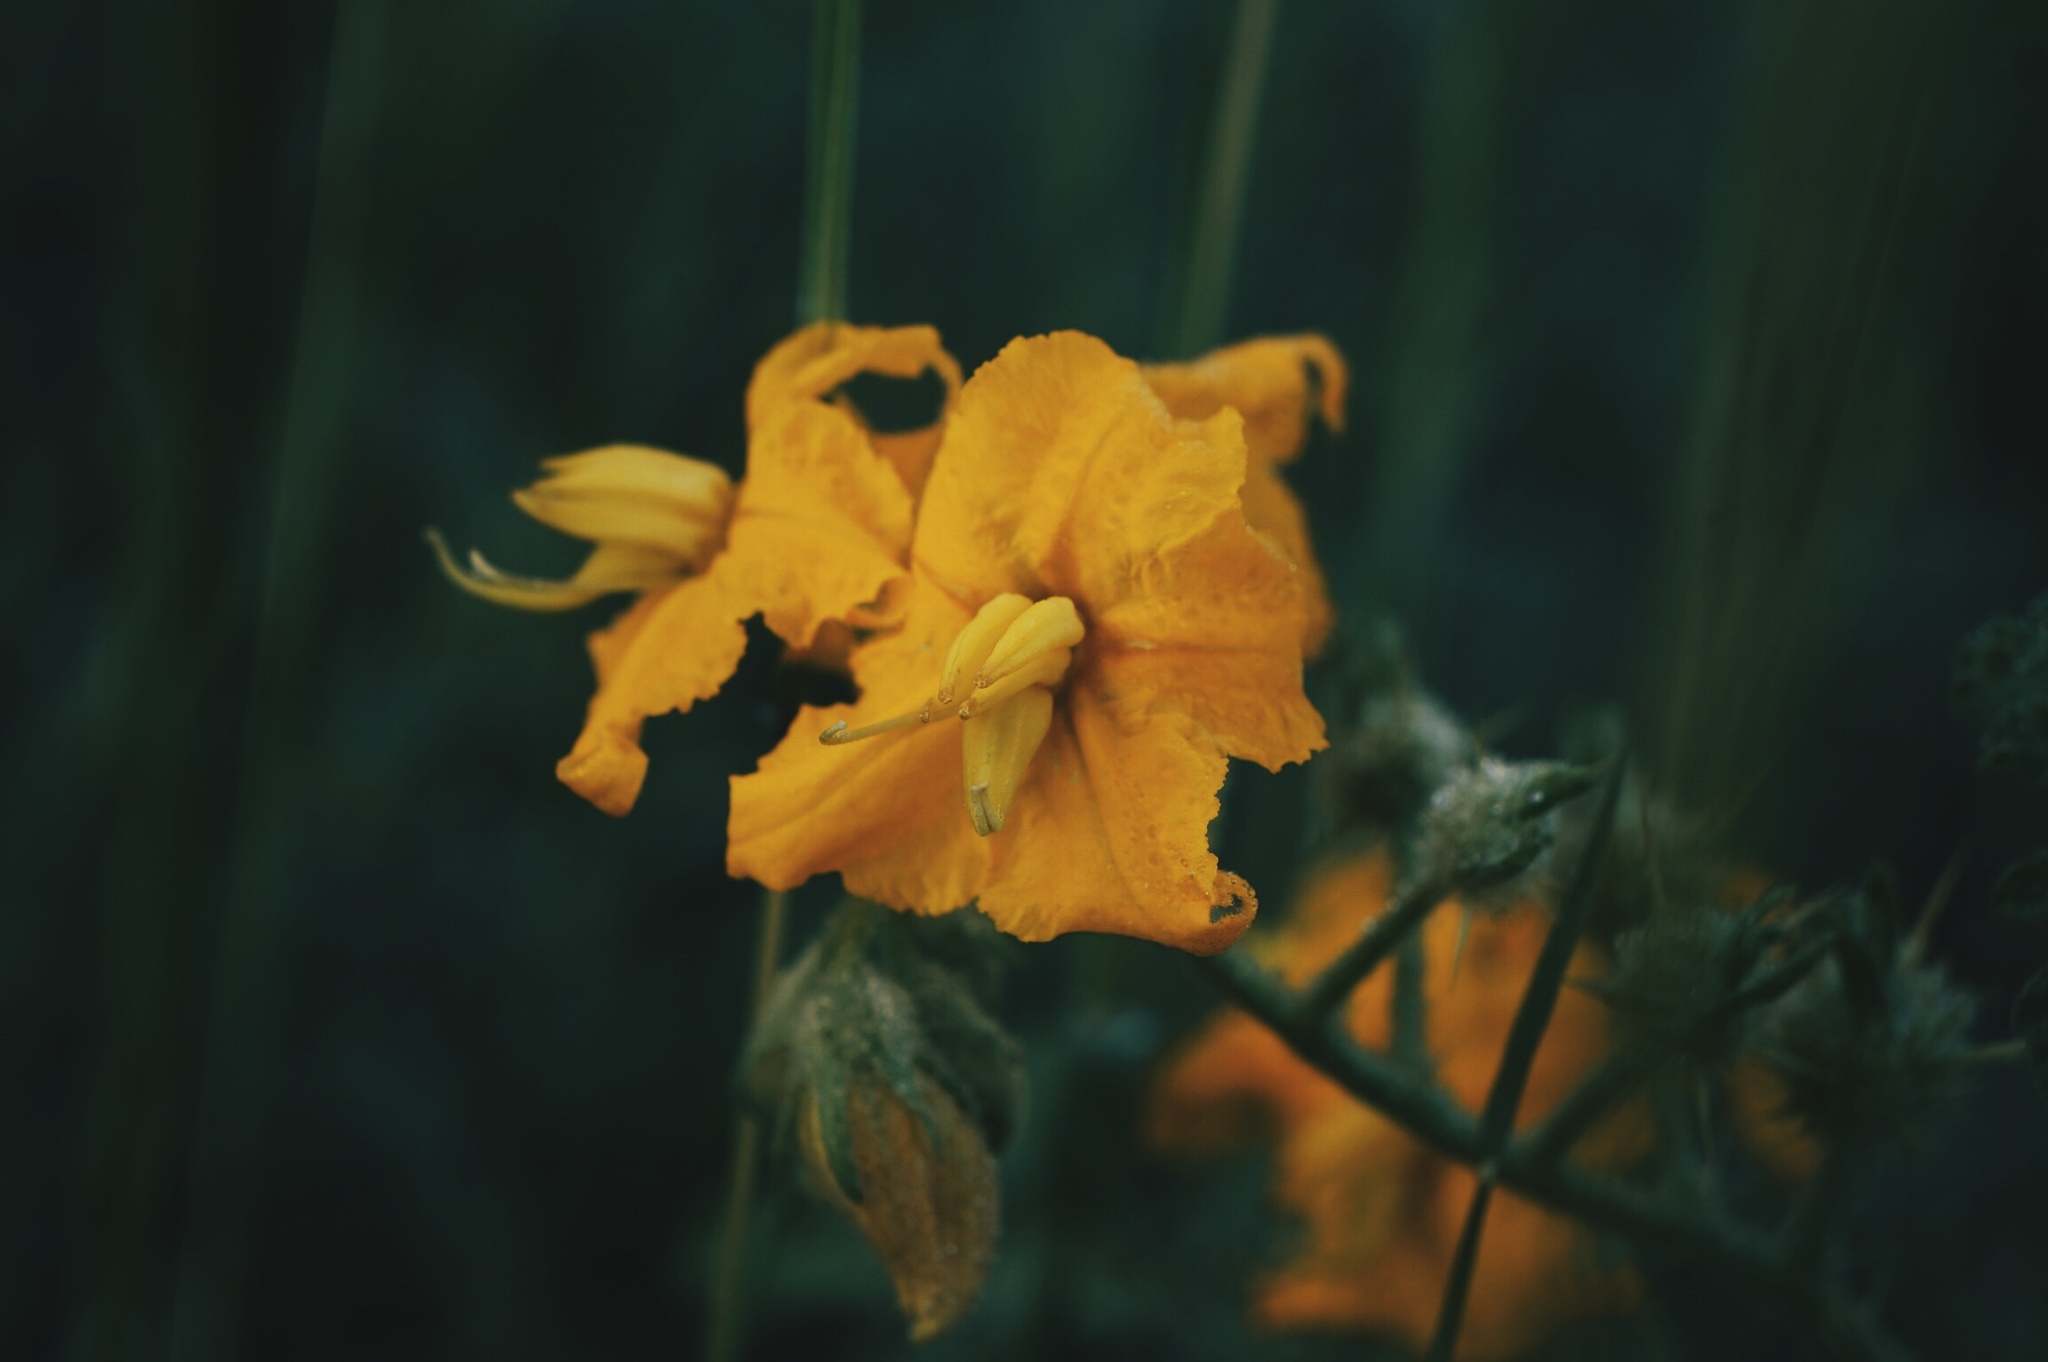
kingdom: Plantae
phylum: Tracheophyta
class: Magnoliopsida
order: Solanales
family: Solanaceae
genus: Solanum
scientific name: Solanum angustifolium
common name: Buffalobur nightshade
